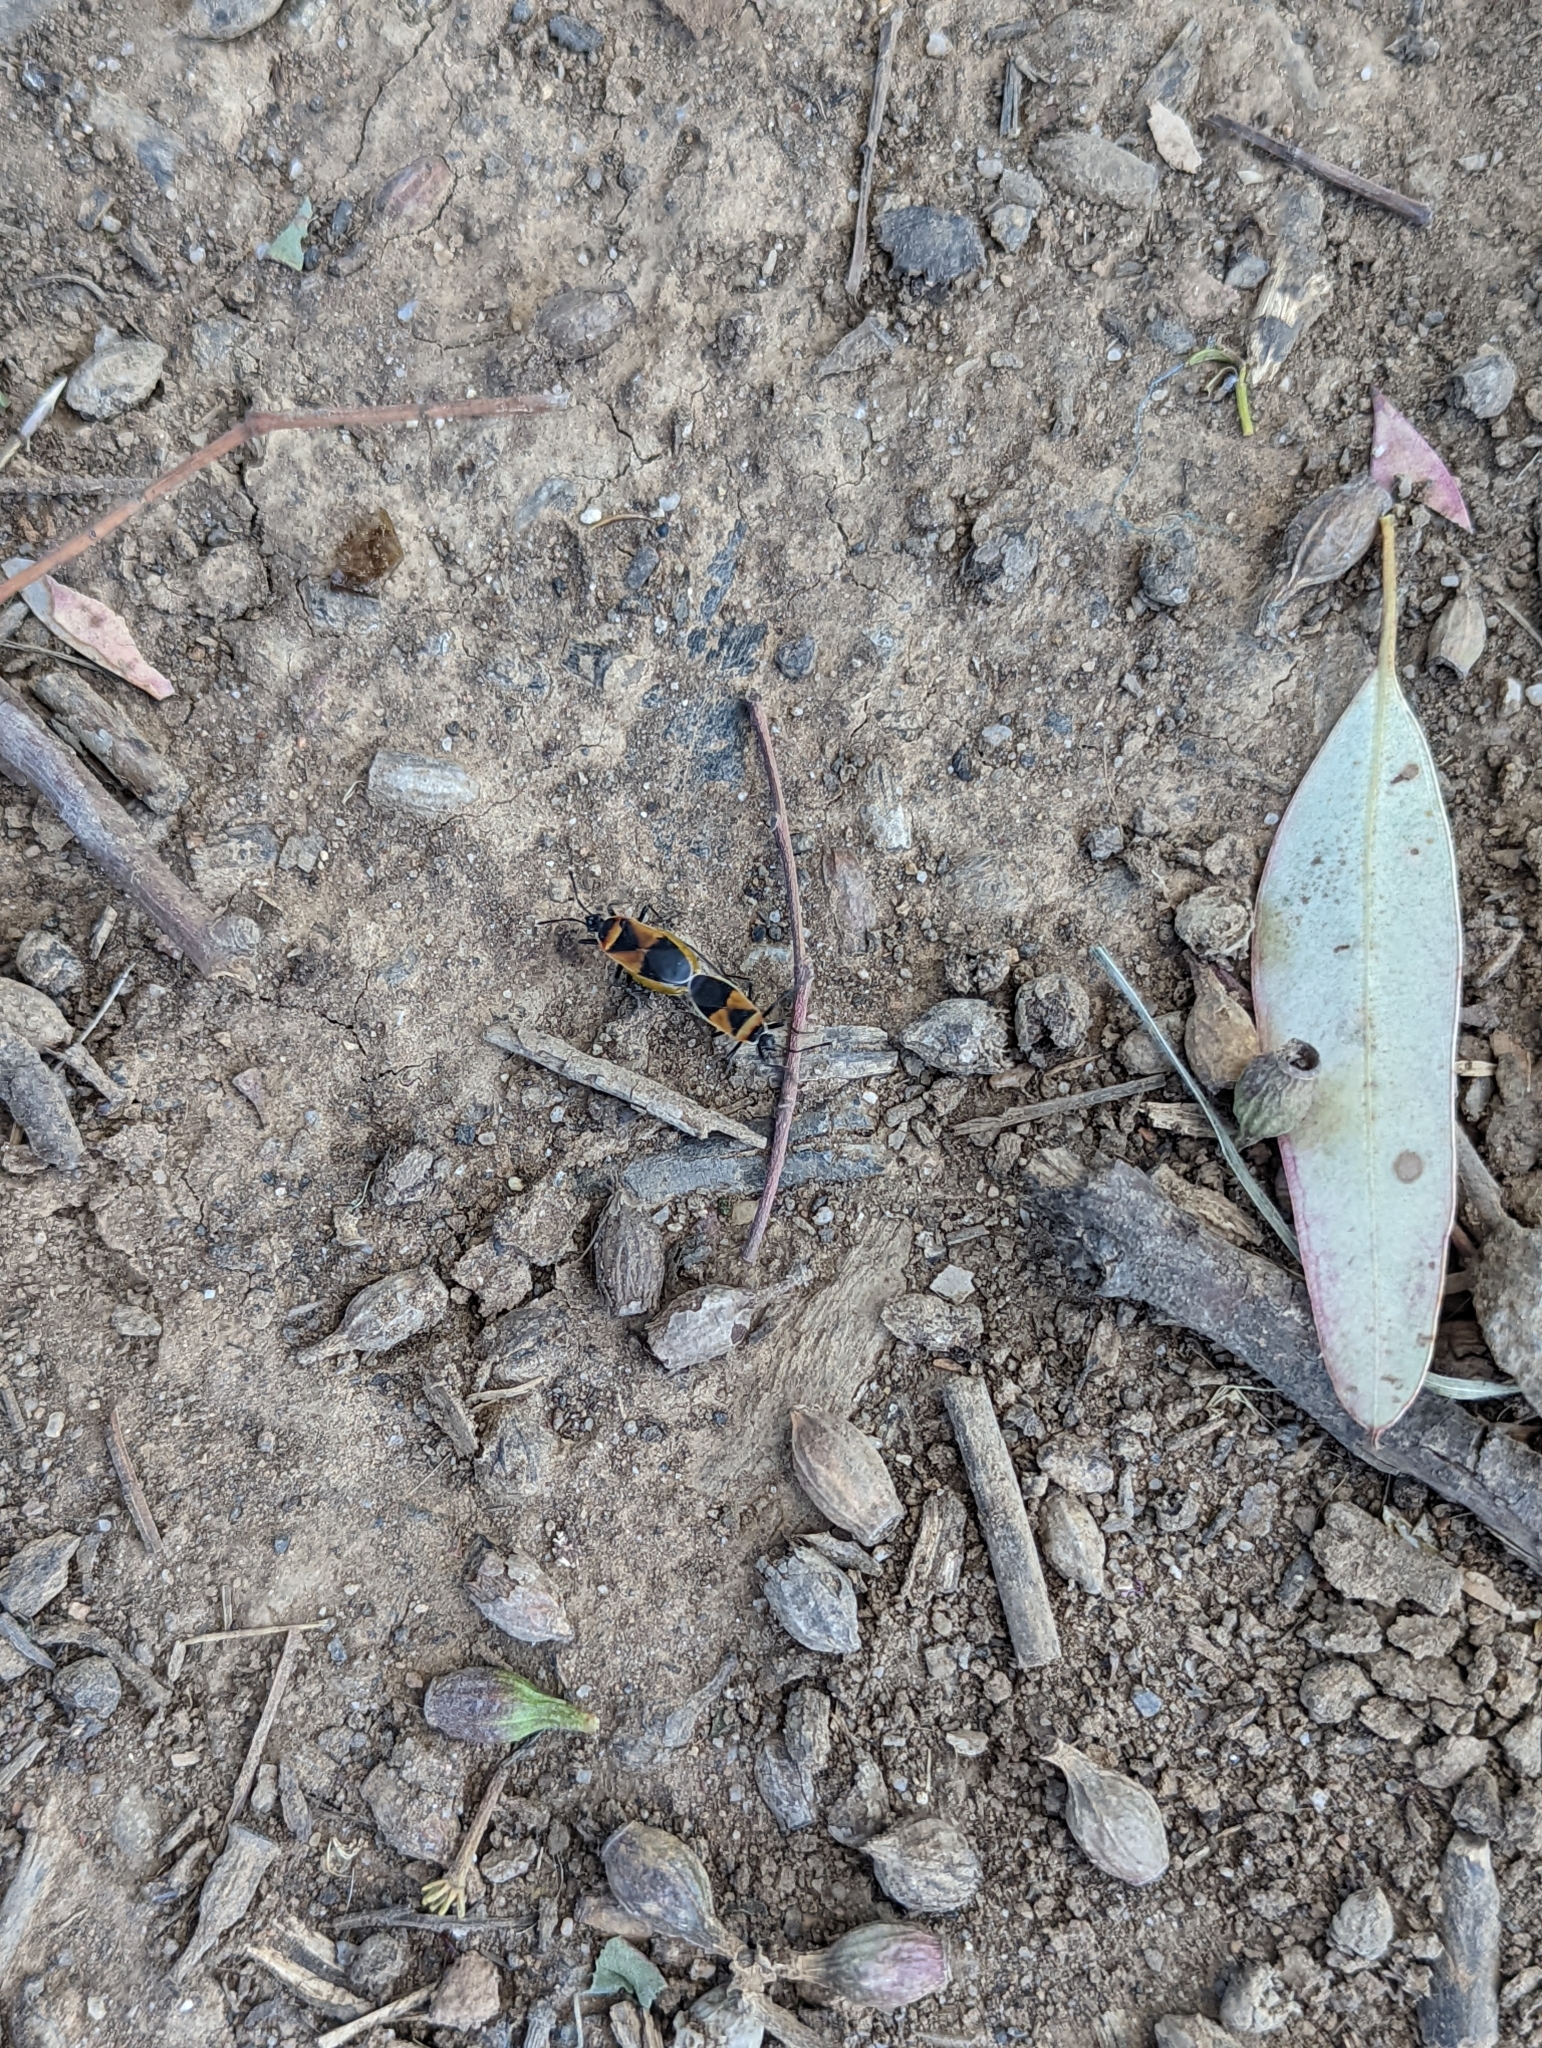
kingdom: Animalia
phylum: Arthropoda
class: Insecta
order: Hemiptera
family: Pyrrhocoridae
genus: Dindymus
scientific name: Dindymus
